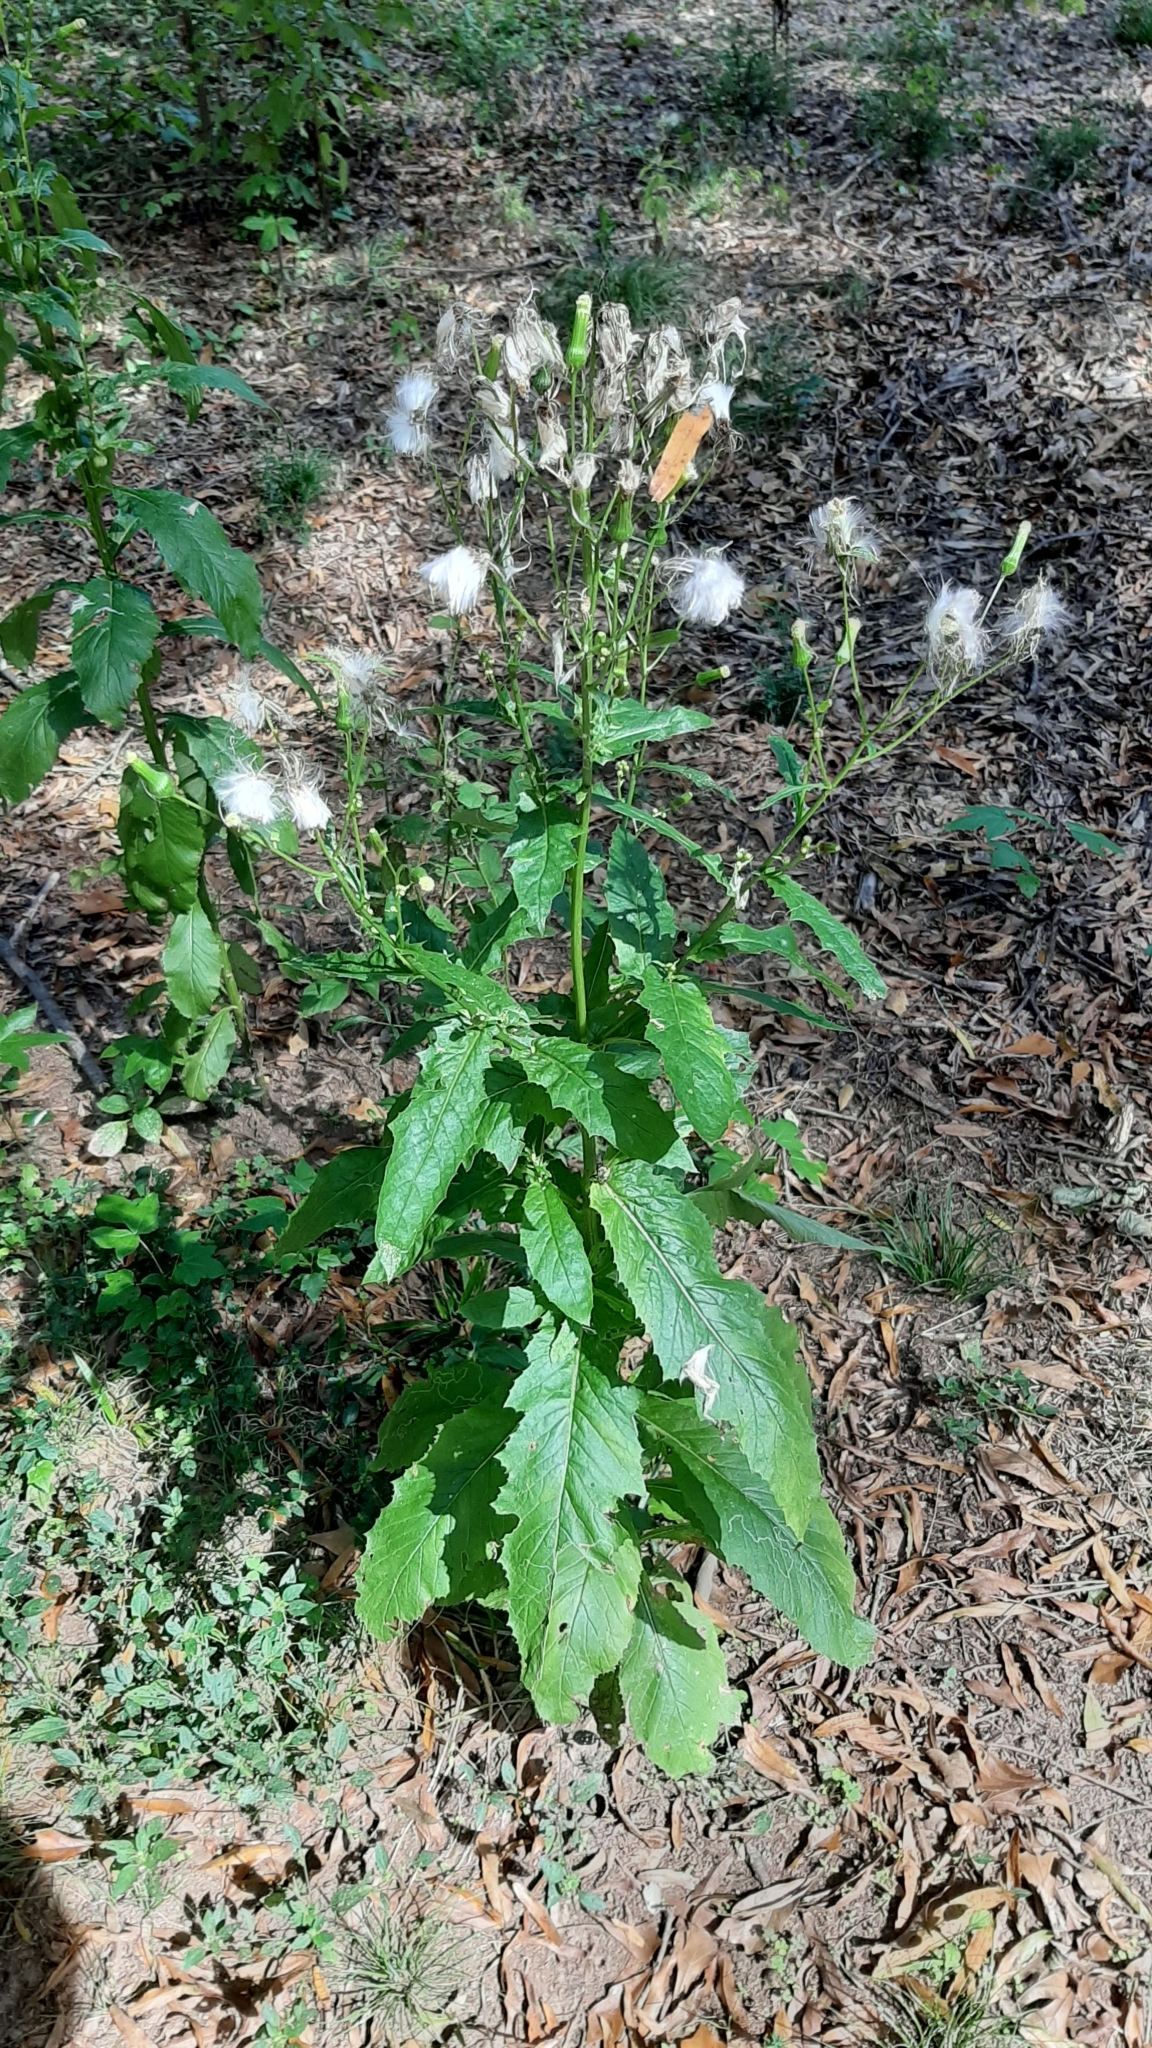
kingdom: Plantae
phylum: Tracheophyta
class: Magnoliopsida
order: Asterales
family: Asteraceae
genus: Erechtites
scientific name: Erechtites hieraciifolius
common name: American burnweed
